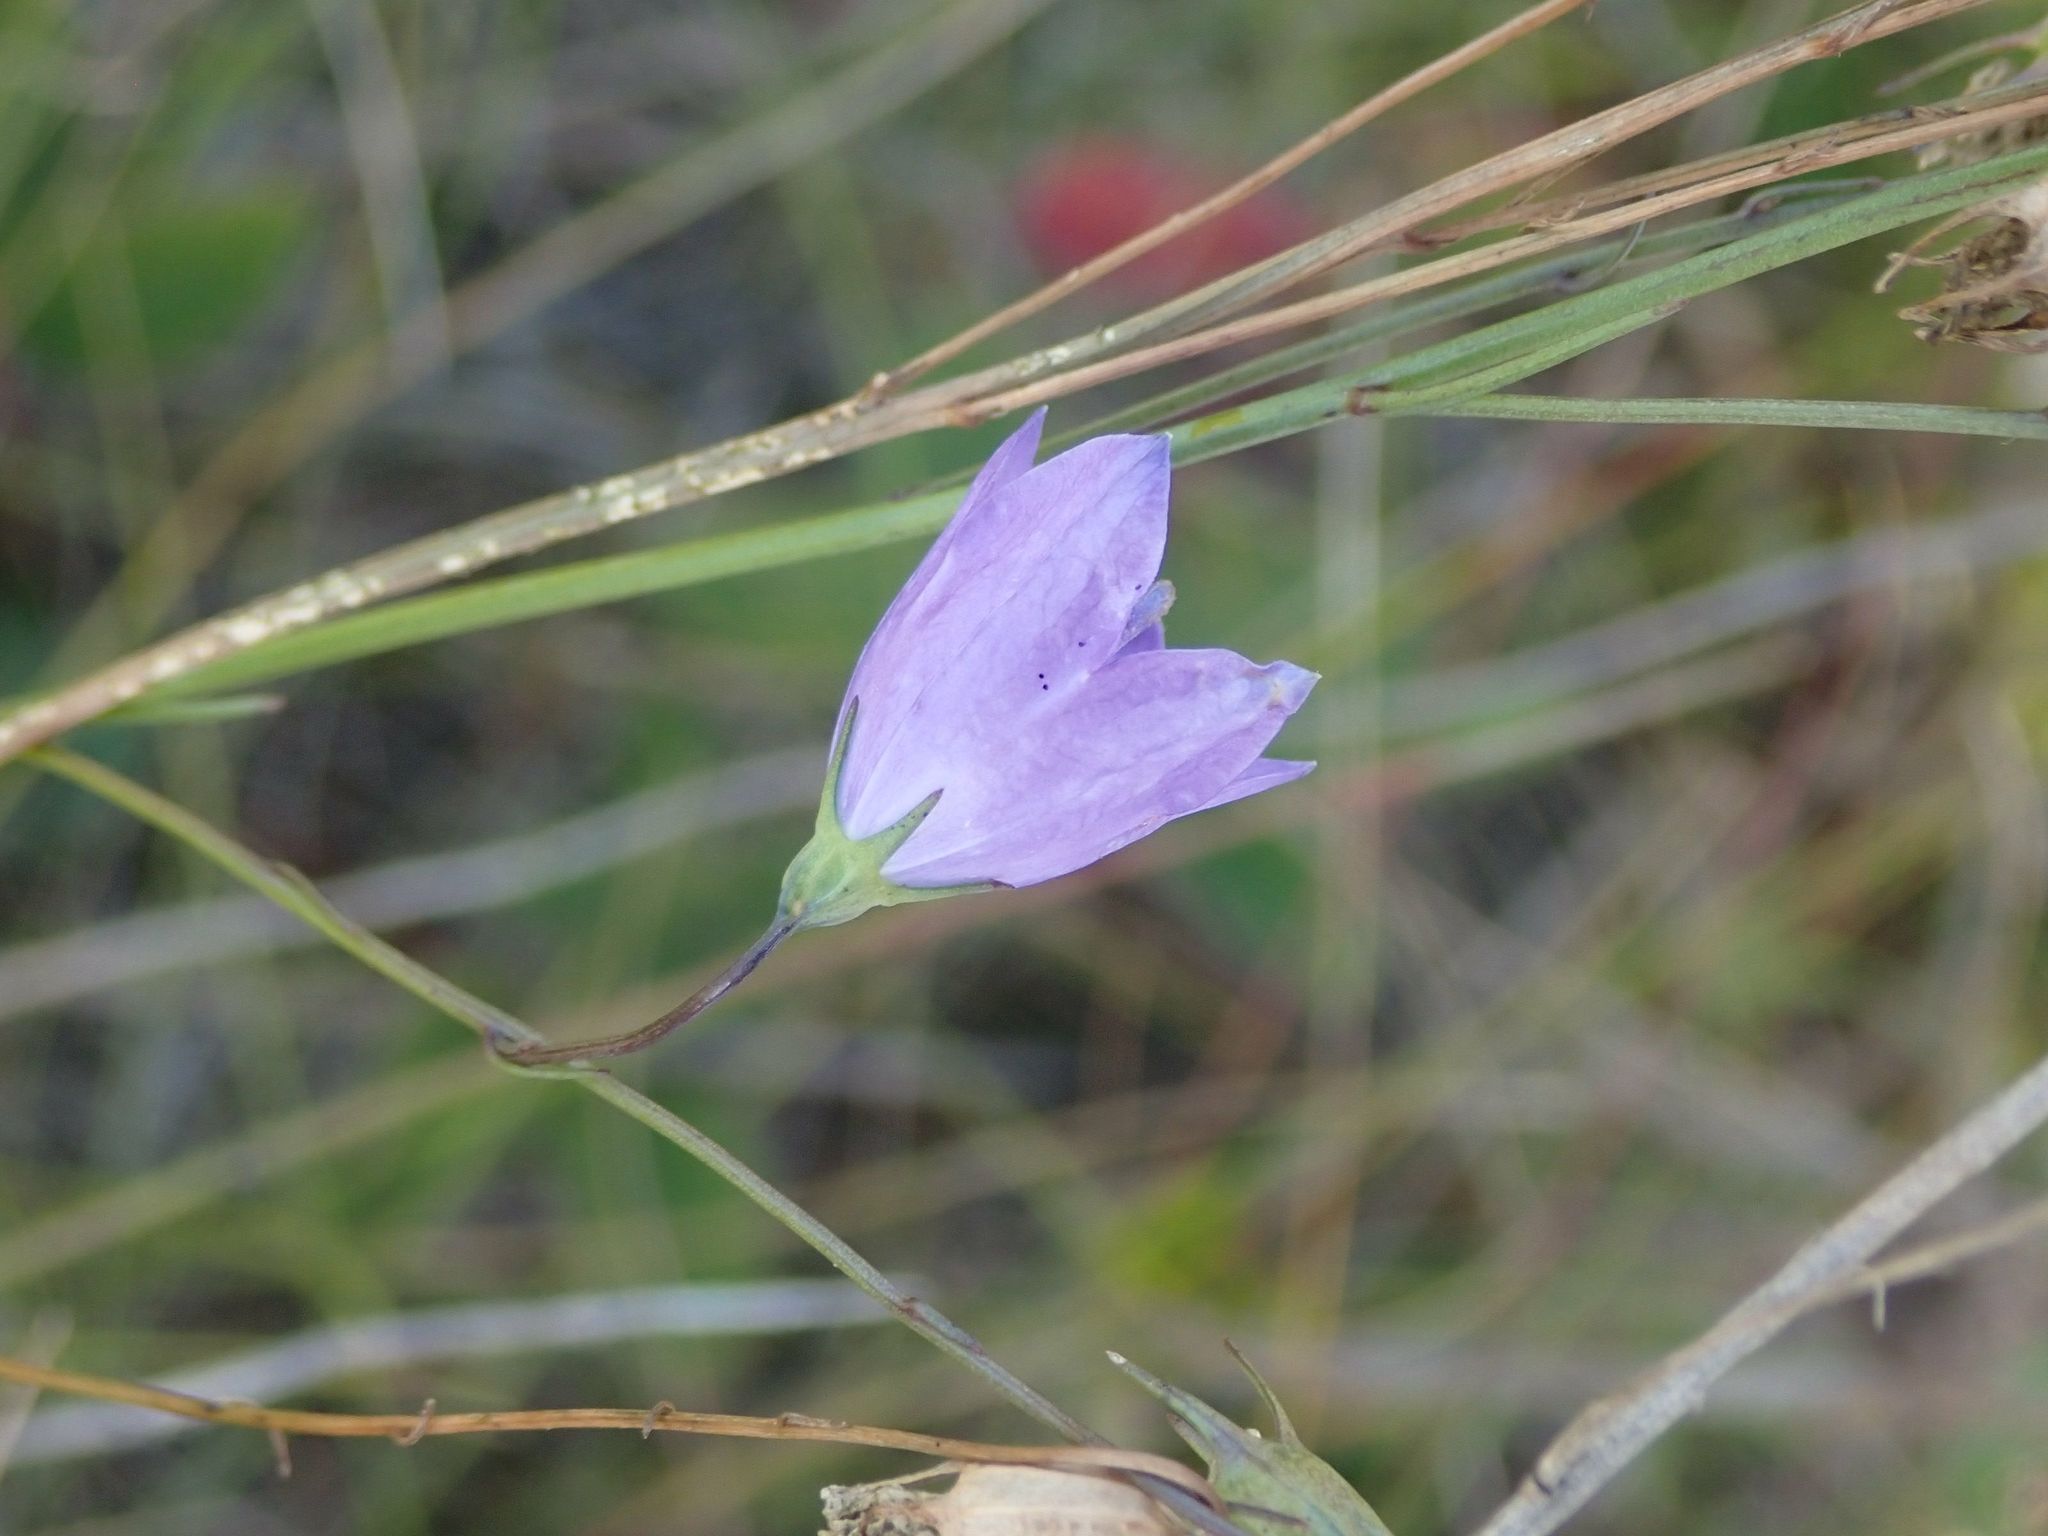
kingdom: Plantae
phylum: Tracheophyta
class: Magnoliopsida
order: Asterales
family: Campanulaceae
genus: Campanula
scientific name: Campanula petiolata
